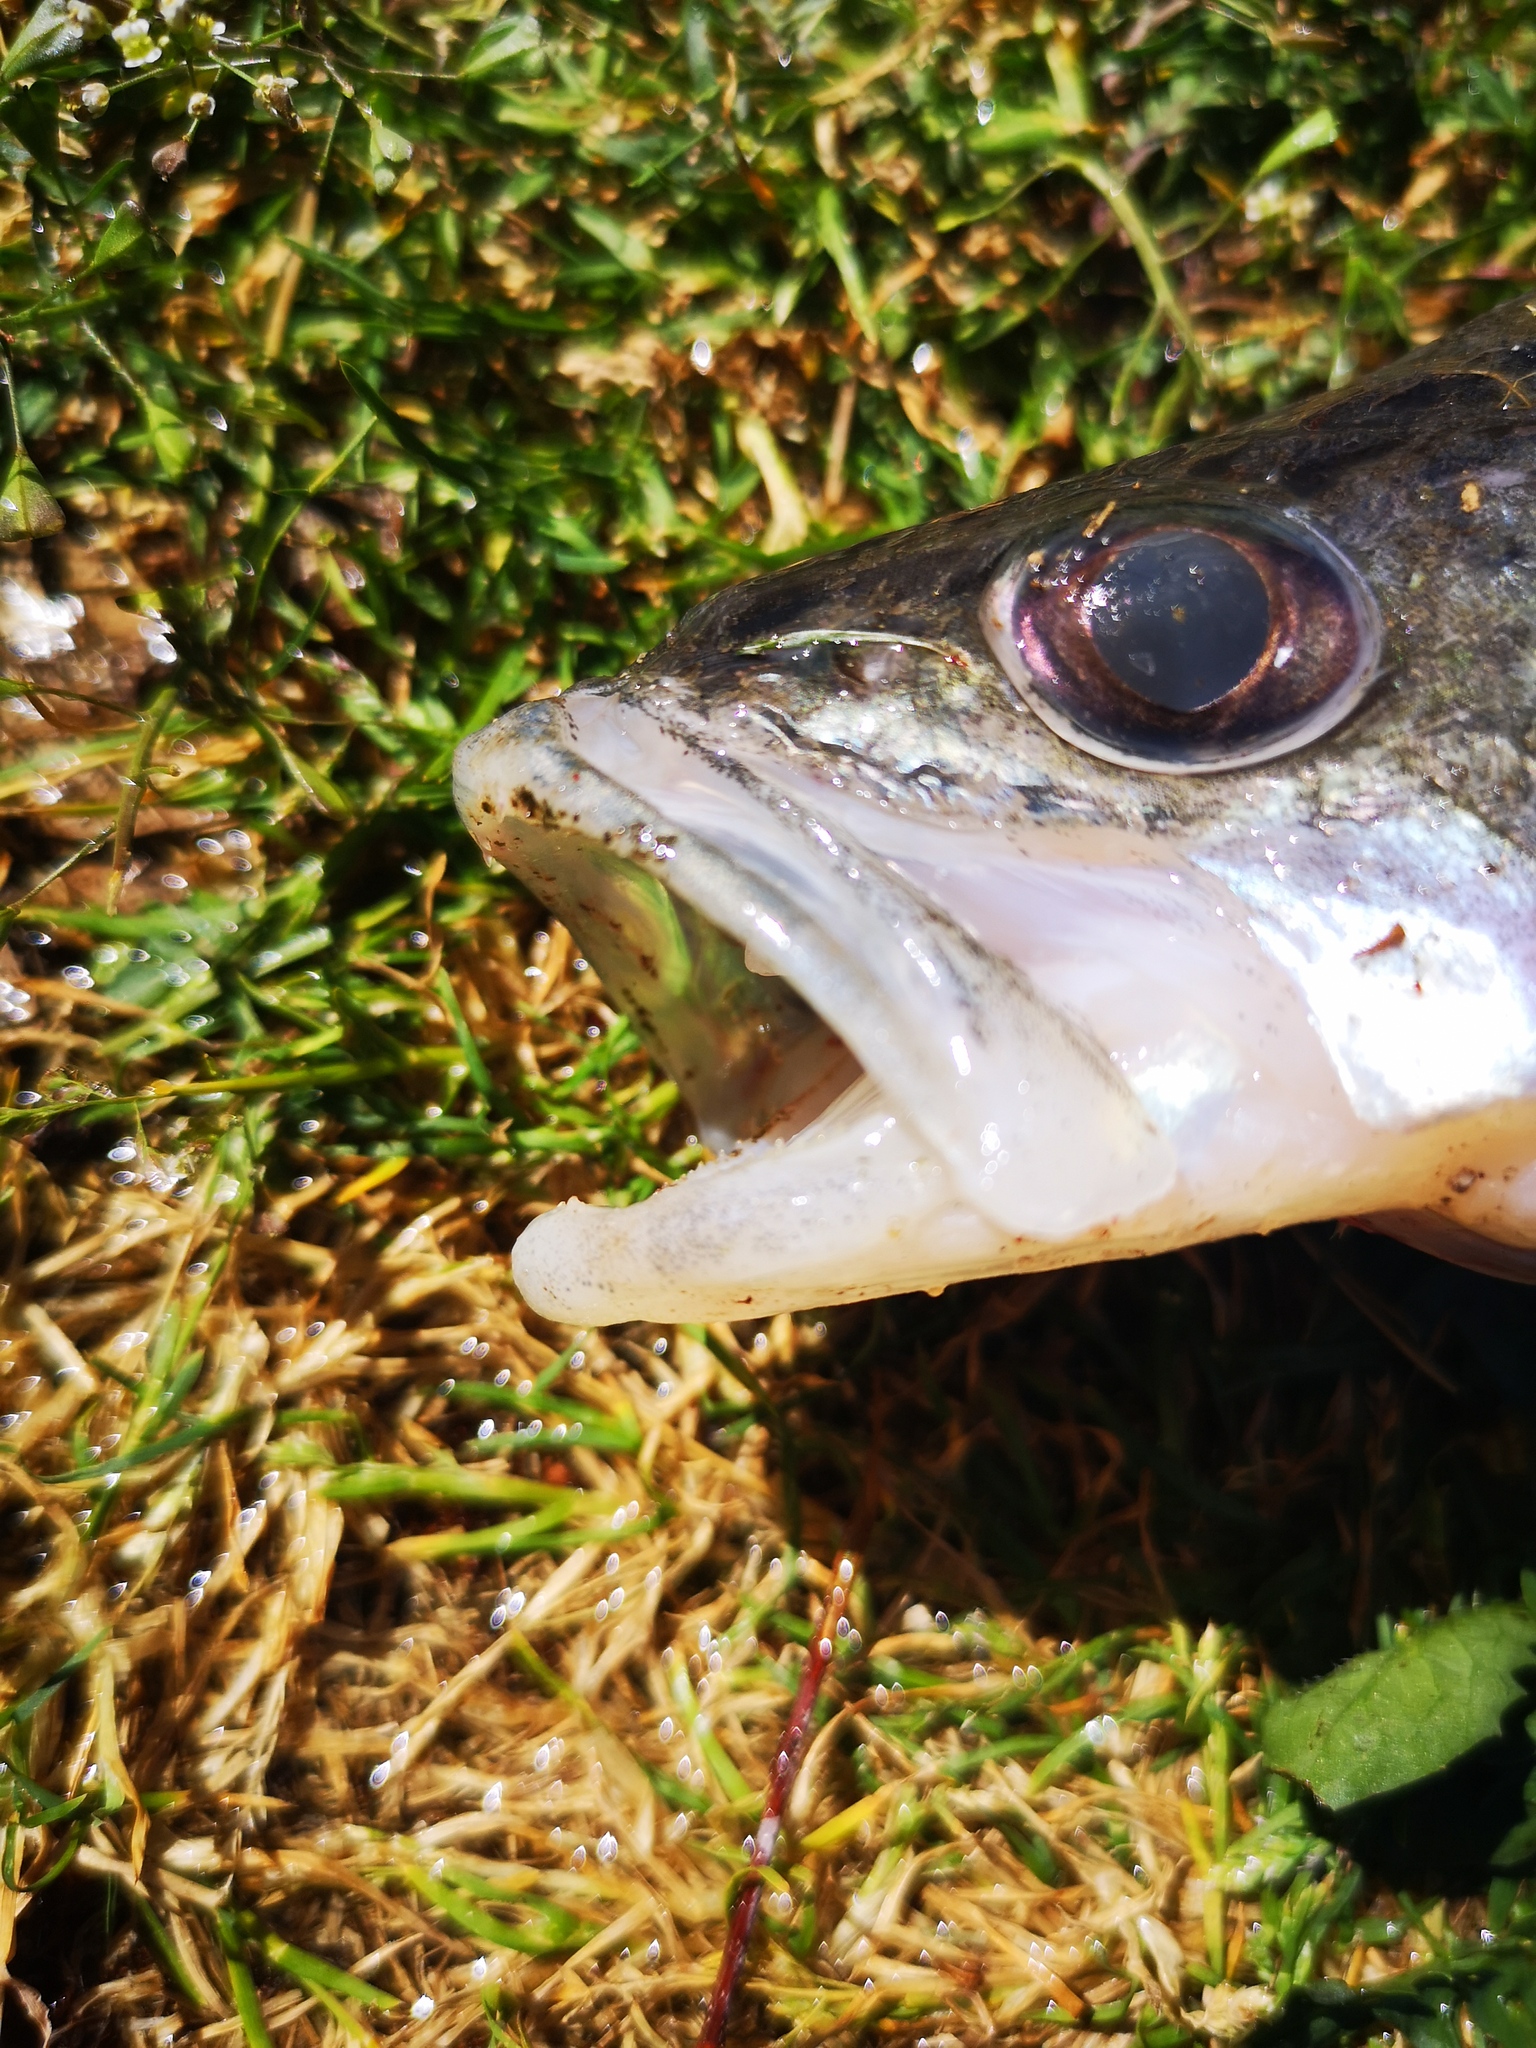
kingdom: Animalia
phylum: Chordata
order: Perciformes
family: Percidae
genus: Sander
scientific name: Sander volgensis
